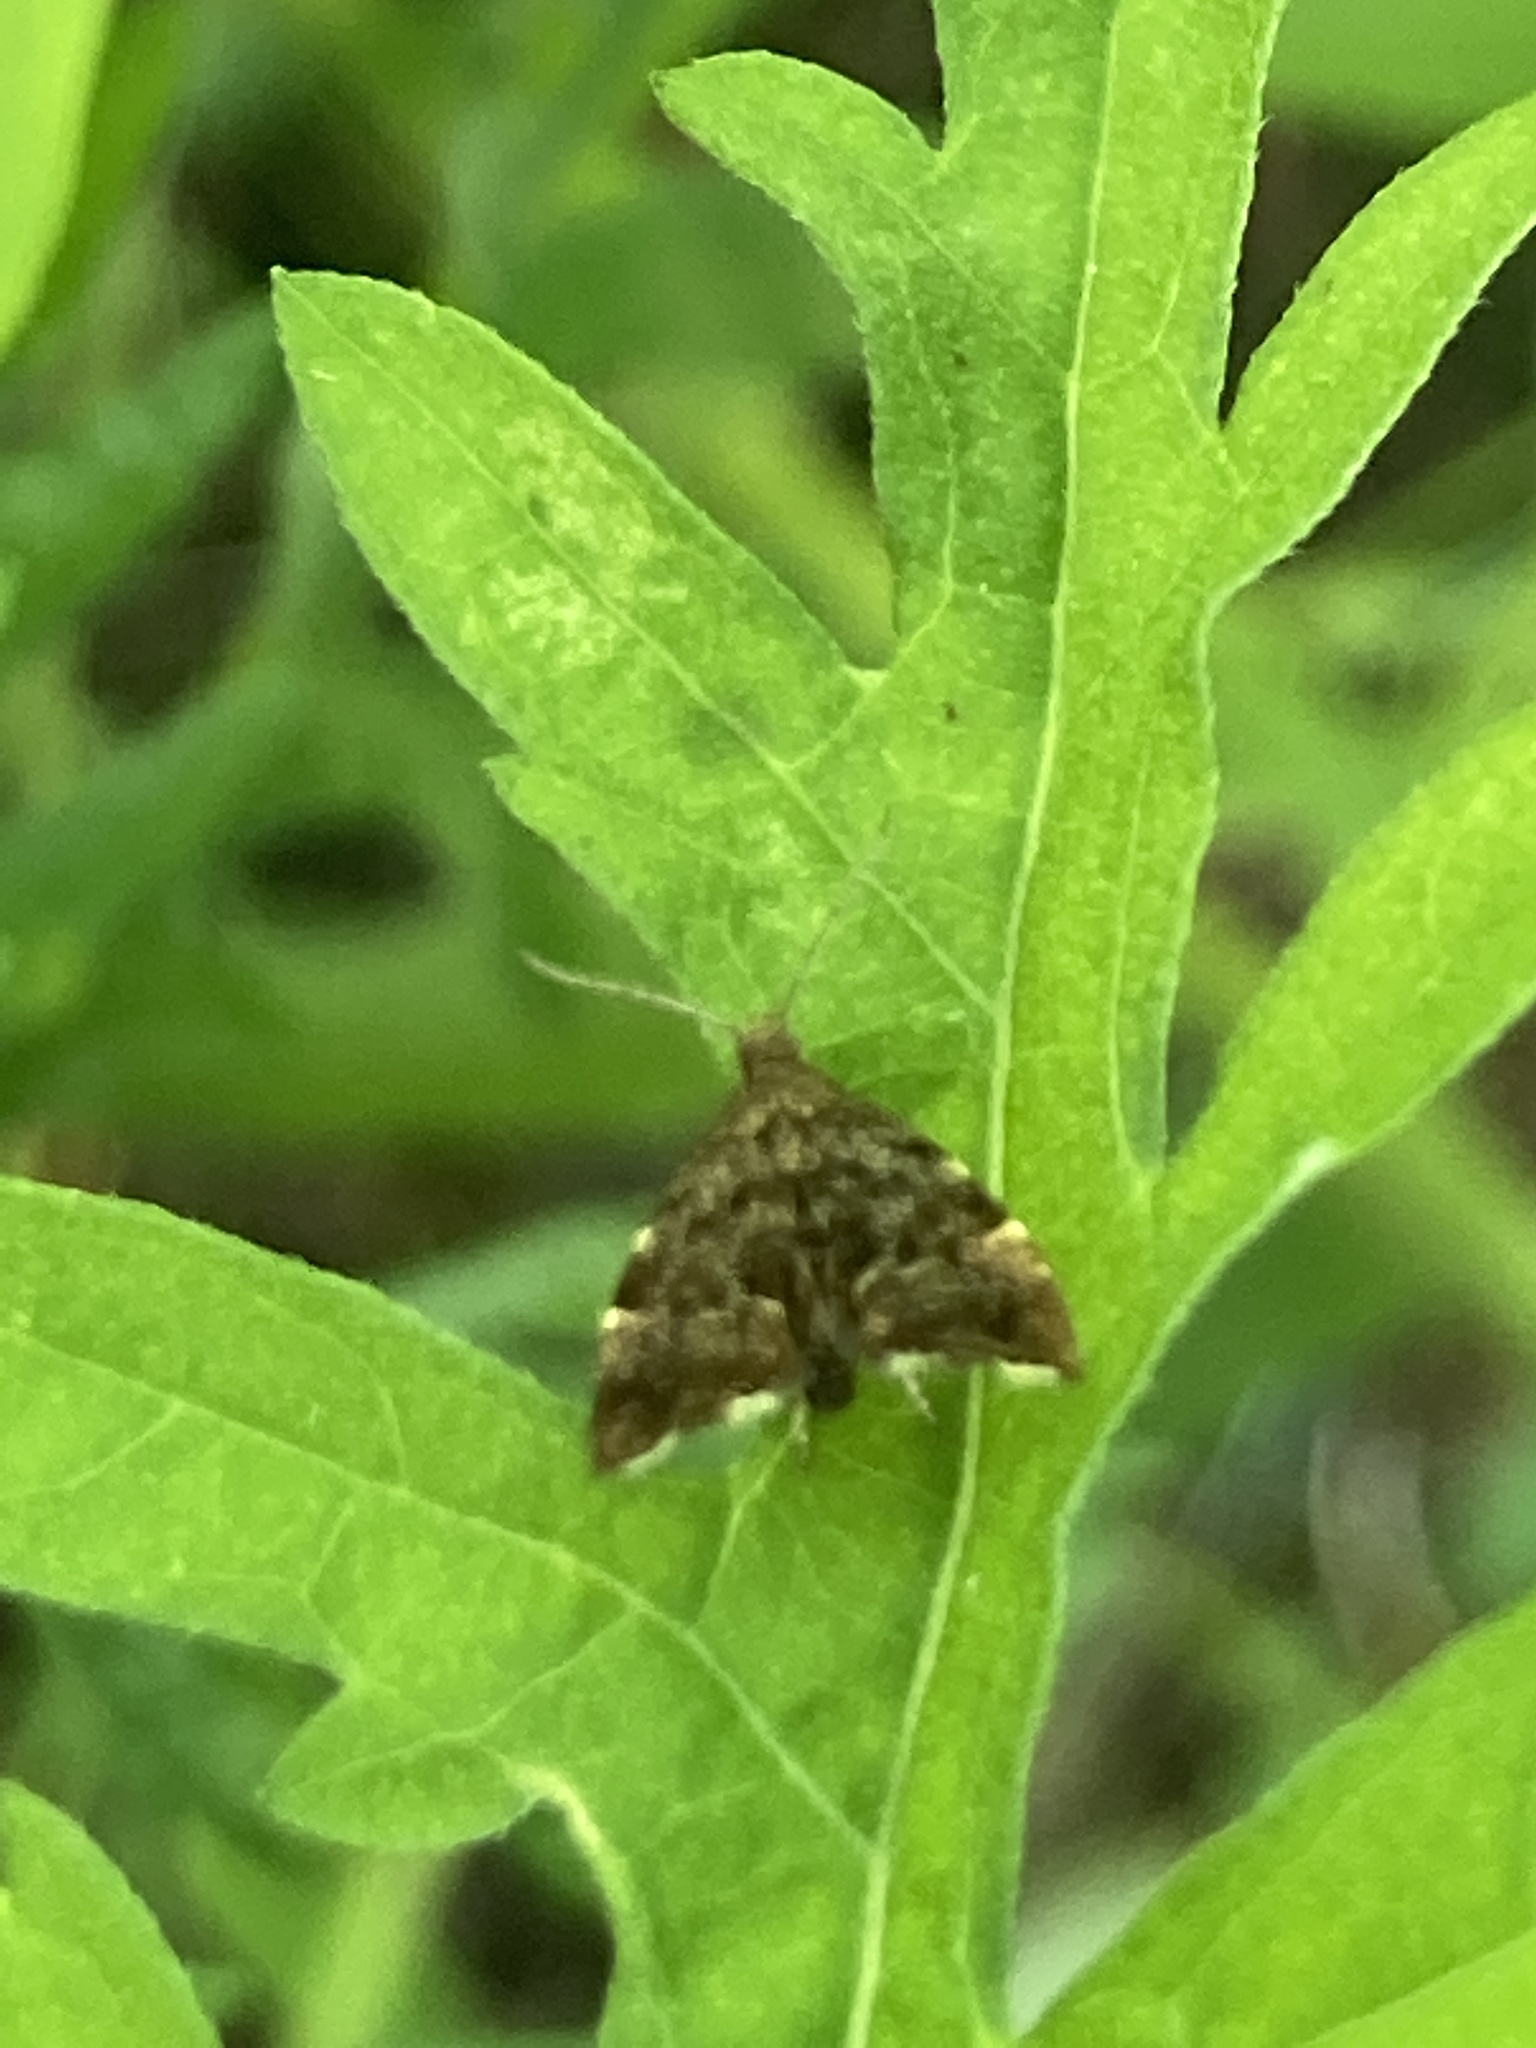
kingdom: Animalia
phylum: Arthropoda
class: Insecta
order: Lepidoptera
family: Choreutidae
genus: Anthophila
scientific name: Anthophila fabriciana
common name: Nettle-tap
